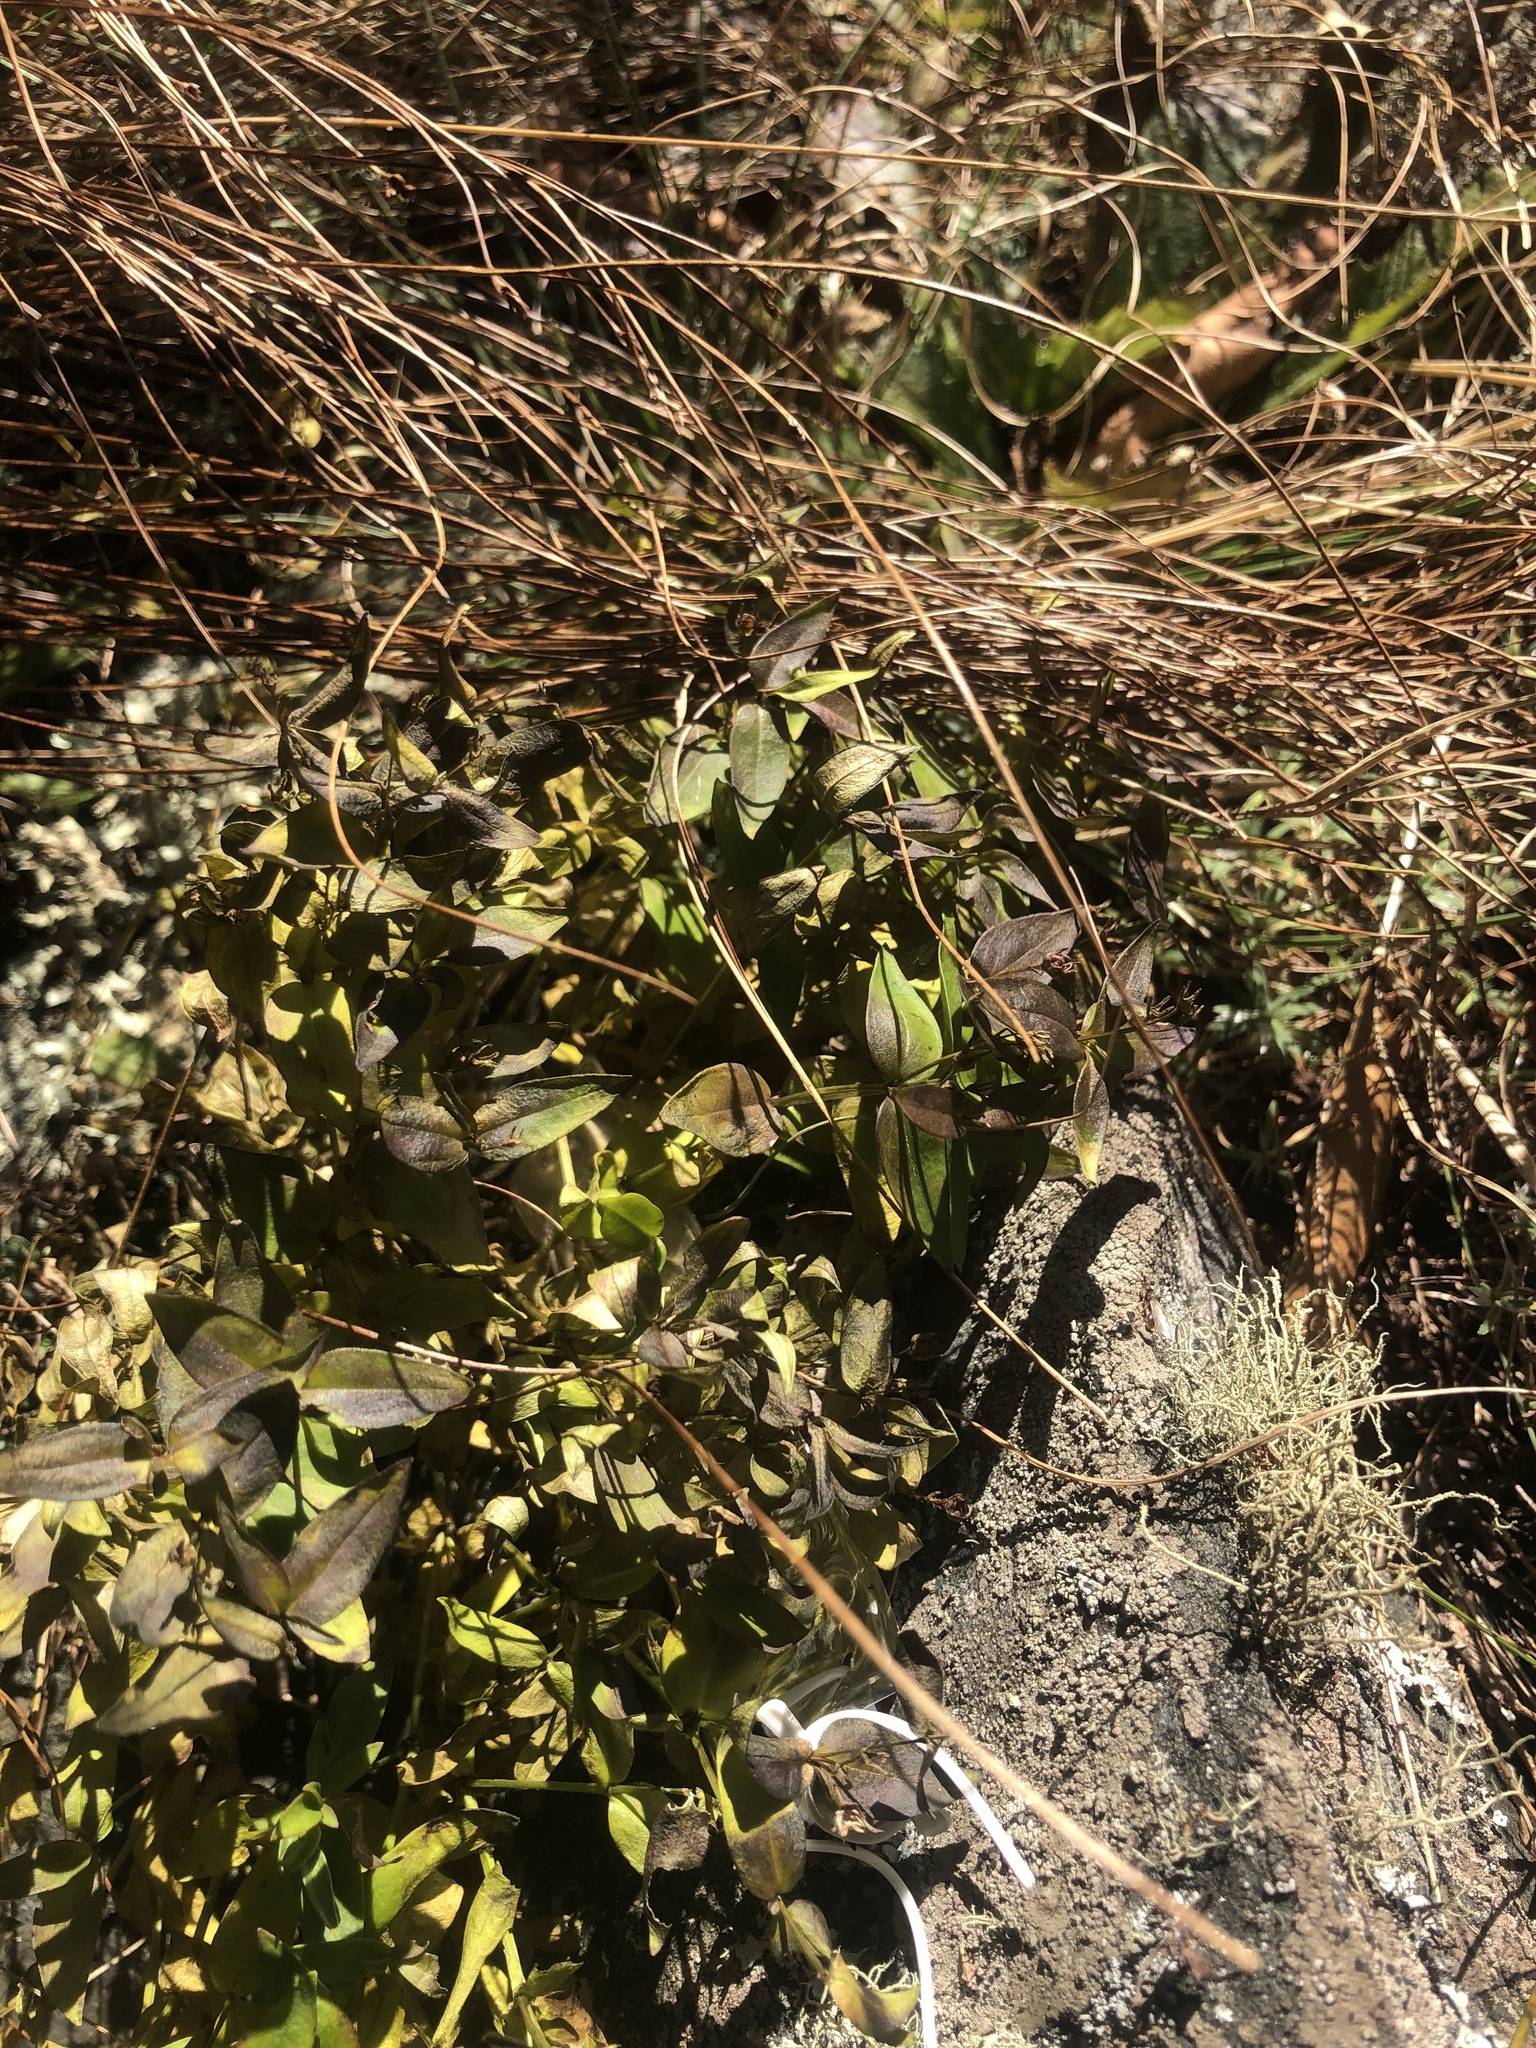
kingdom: Plantae
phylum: Tracheophyta
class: Magnoliopsida
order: Gentianales
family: Rubiaceae
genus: Houstonia
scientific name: Houstonia purpurea
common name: Summer bluet
